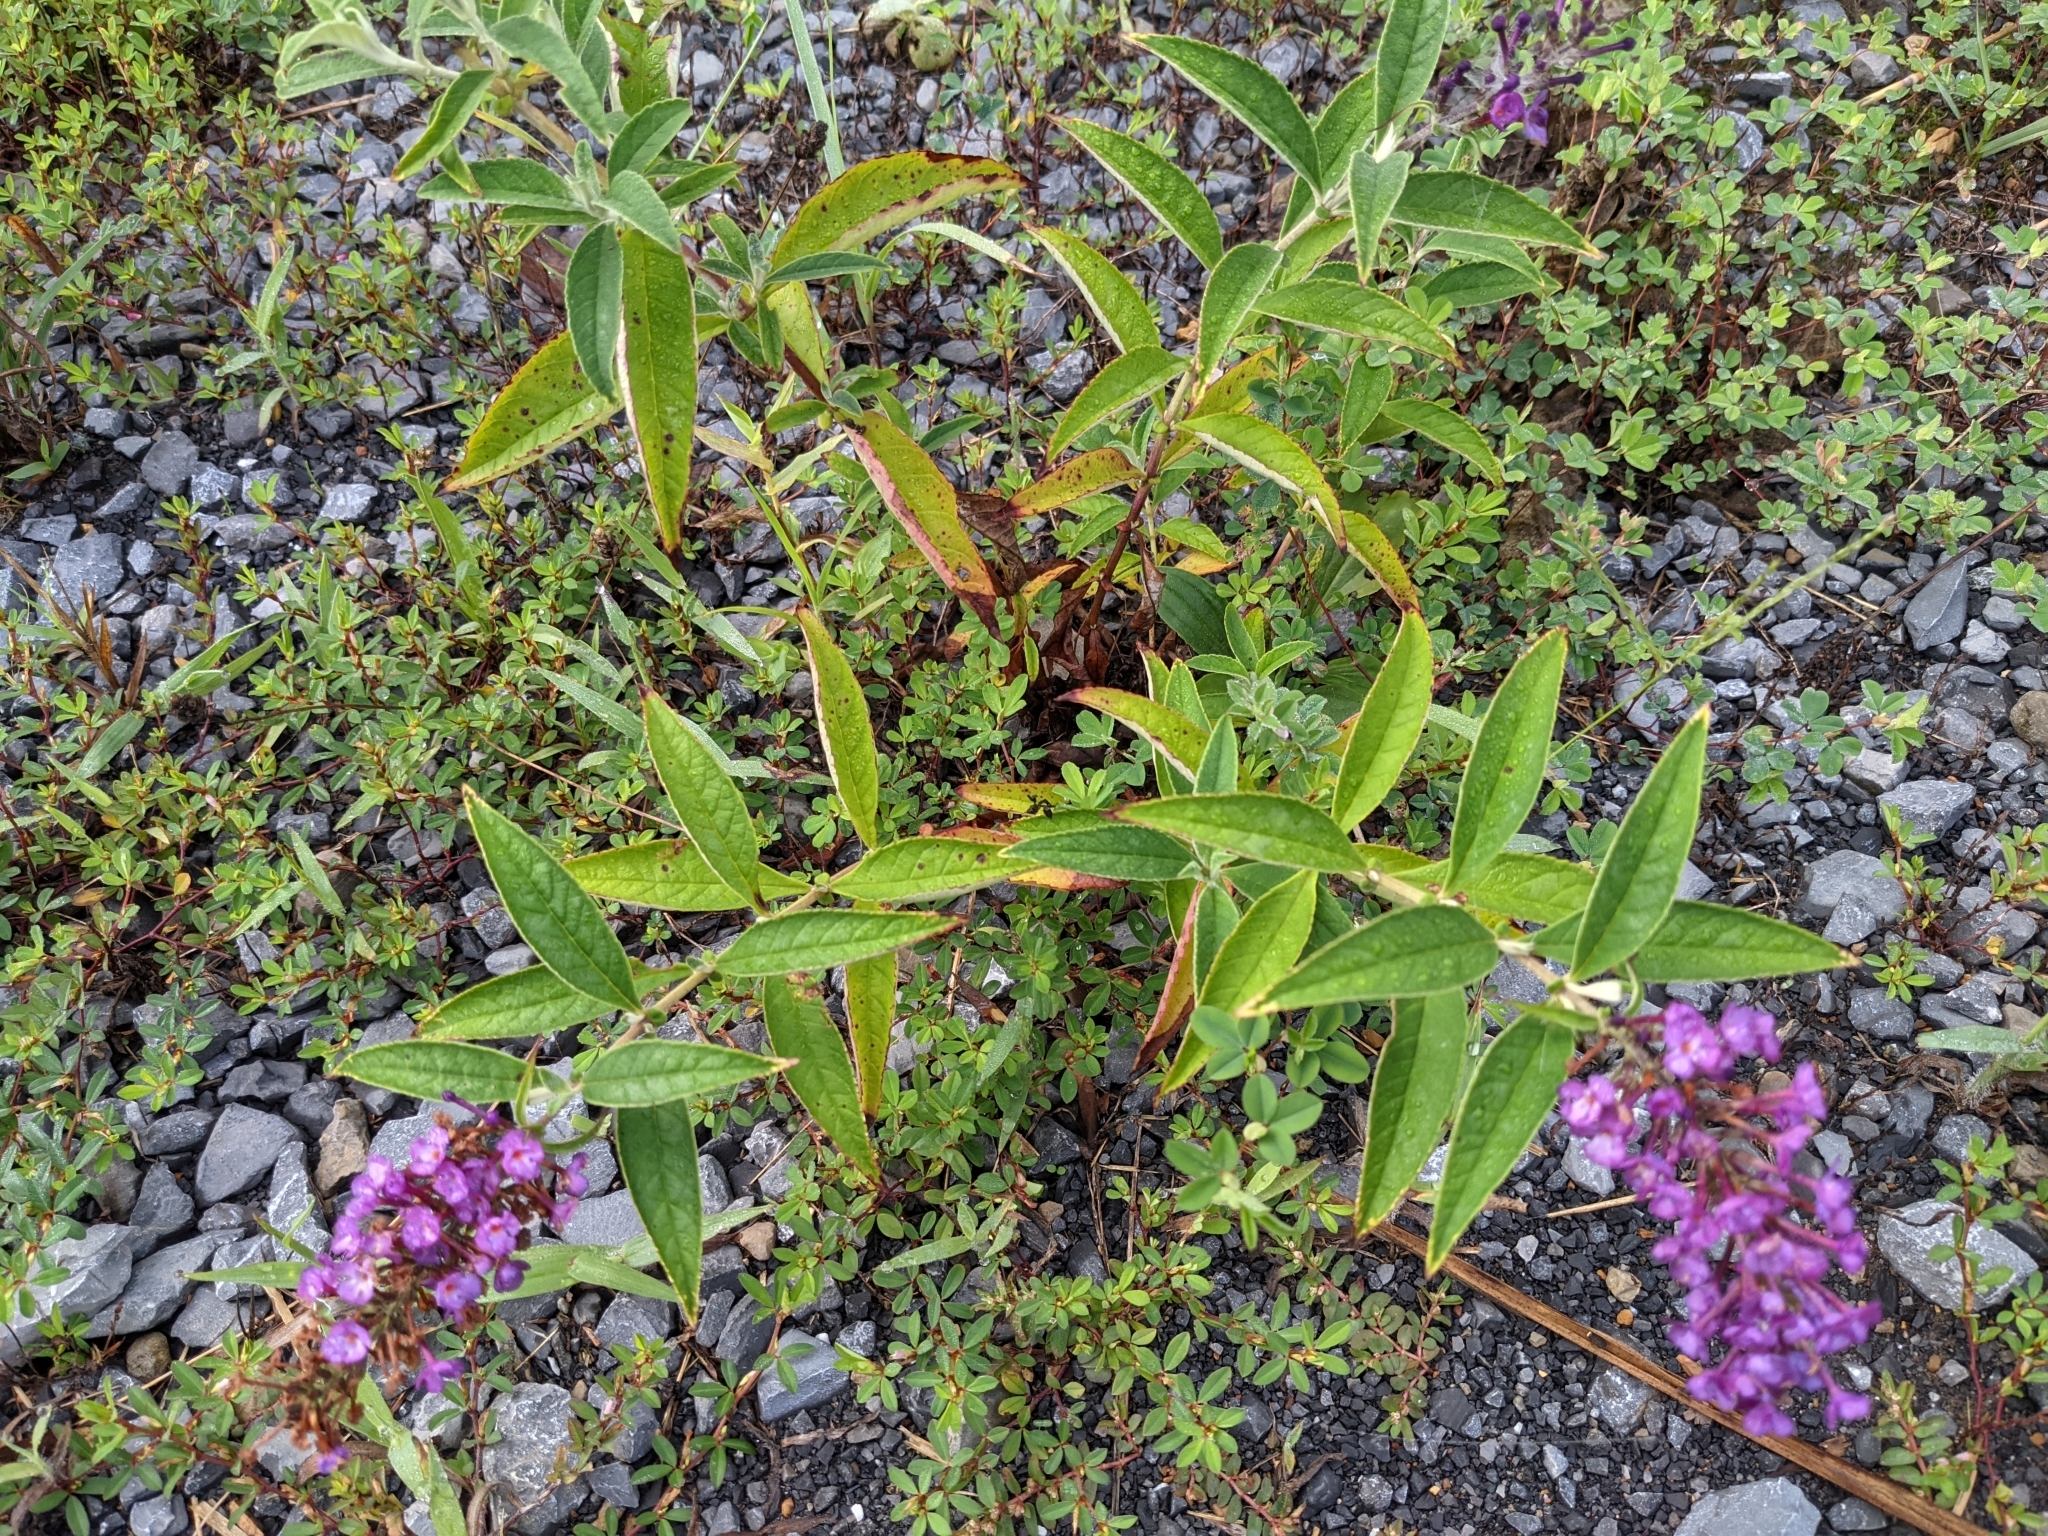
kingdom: Plantae
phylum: Tracheophyta
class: Magnoliopsida
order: Lamiales
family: Scrophulariaceae
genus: Buddleja
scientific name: Buddleja davidii
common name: Butterfly-bush
